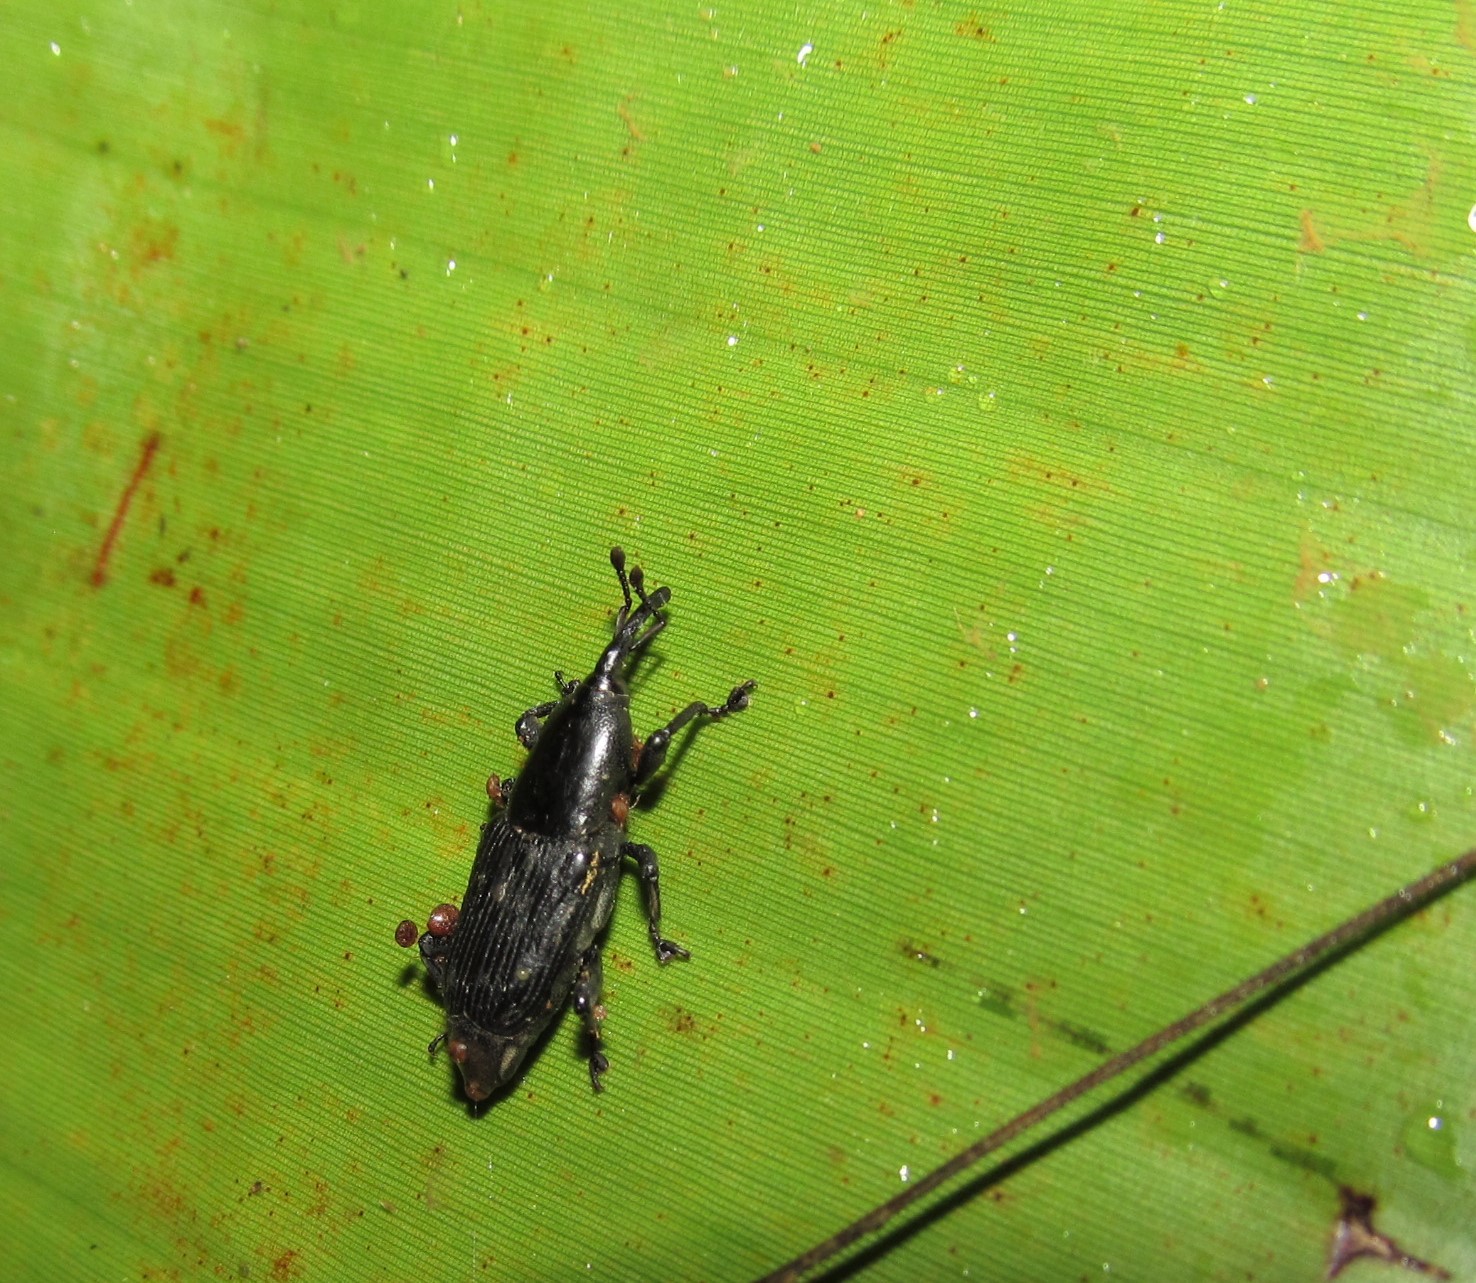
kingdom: Animalia
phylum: Arthropoda
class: Insecta
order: Coleoptera
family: Dryophthoridae
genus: Odoiporus
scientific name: Odoiporus longicollis
